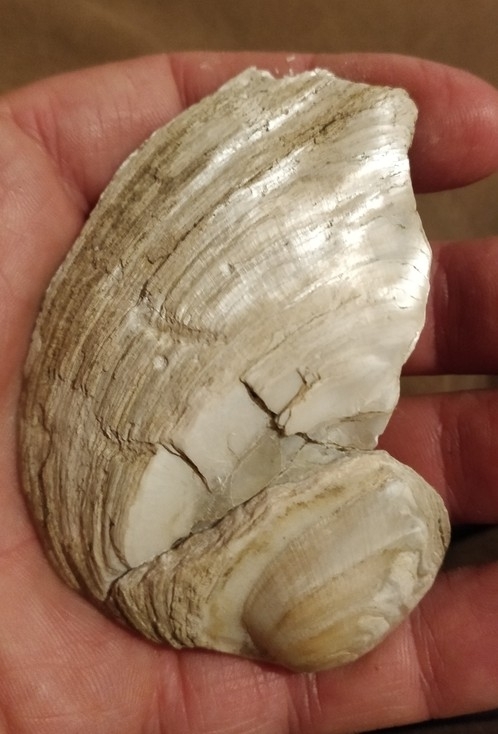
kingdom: Animalia
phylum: Mollusca
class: Bivalvia
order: Unionida
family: Unionidae
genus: Amblema
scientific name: Amblema plicata
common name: Threeridge
